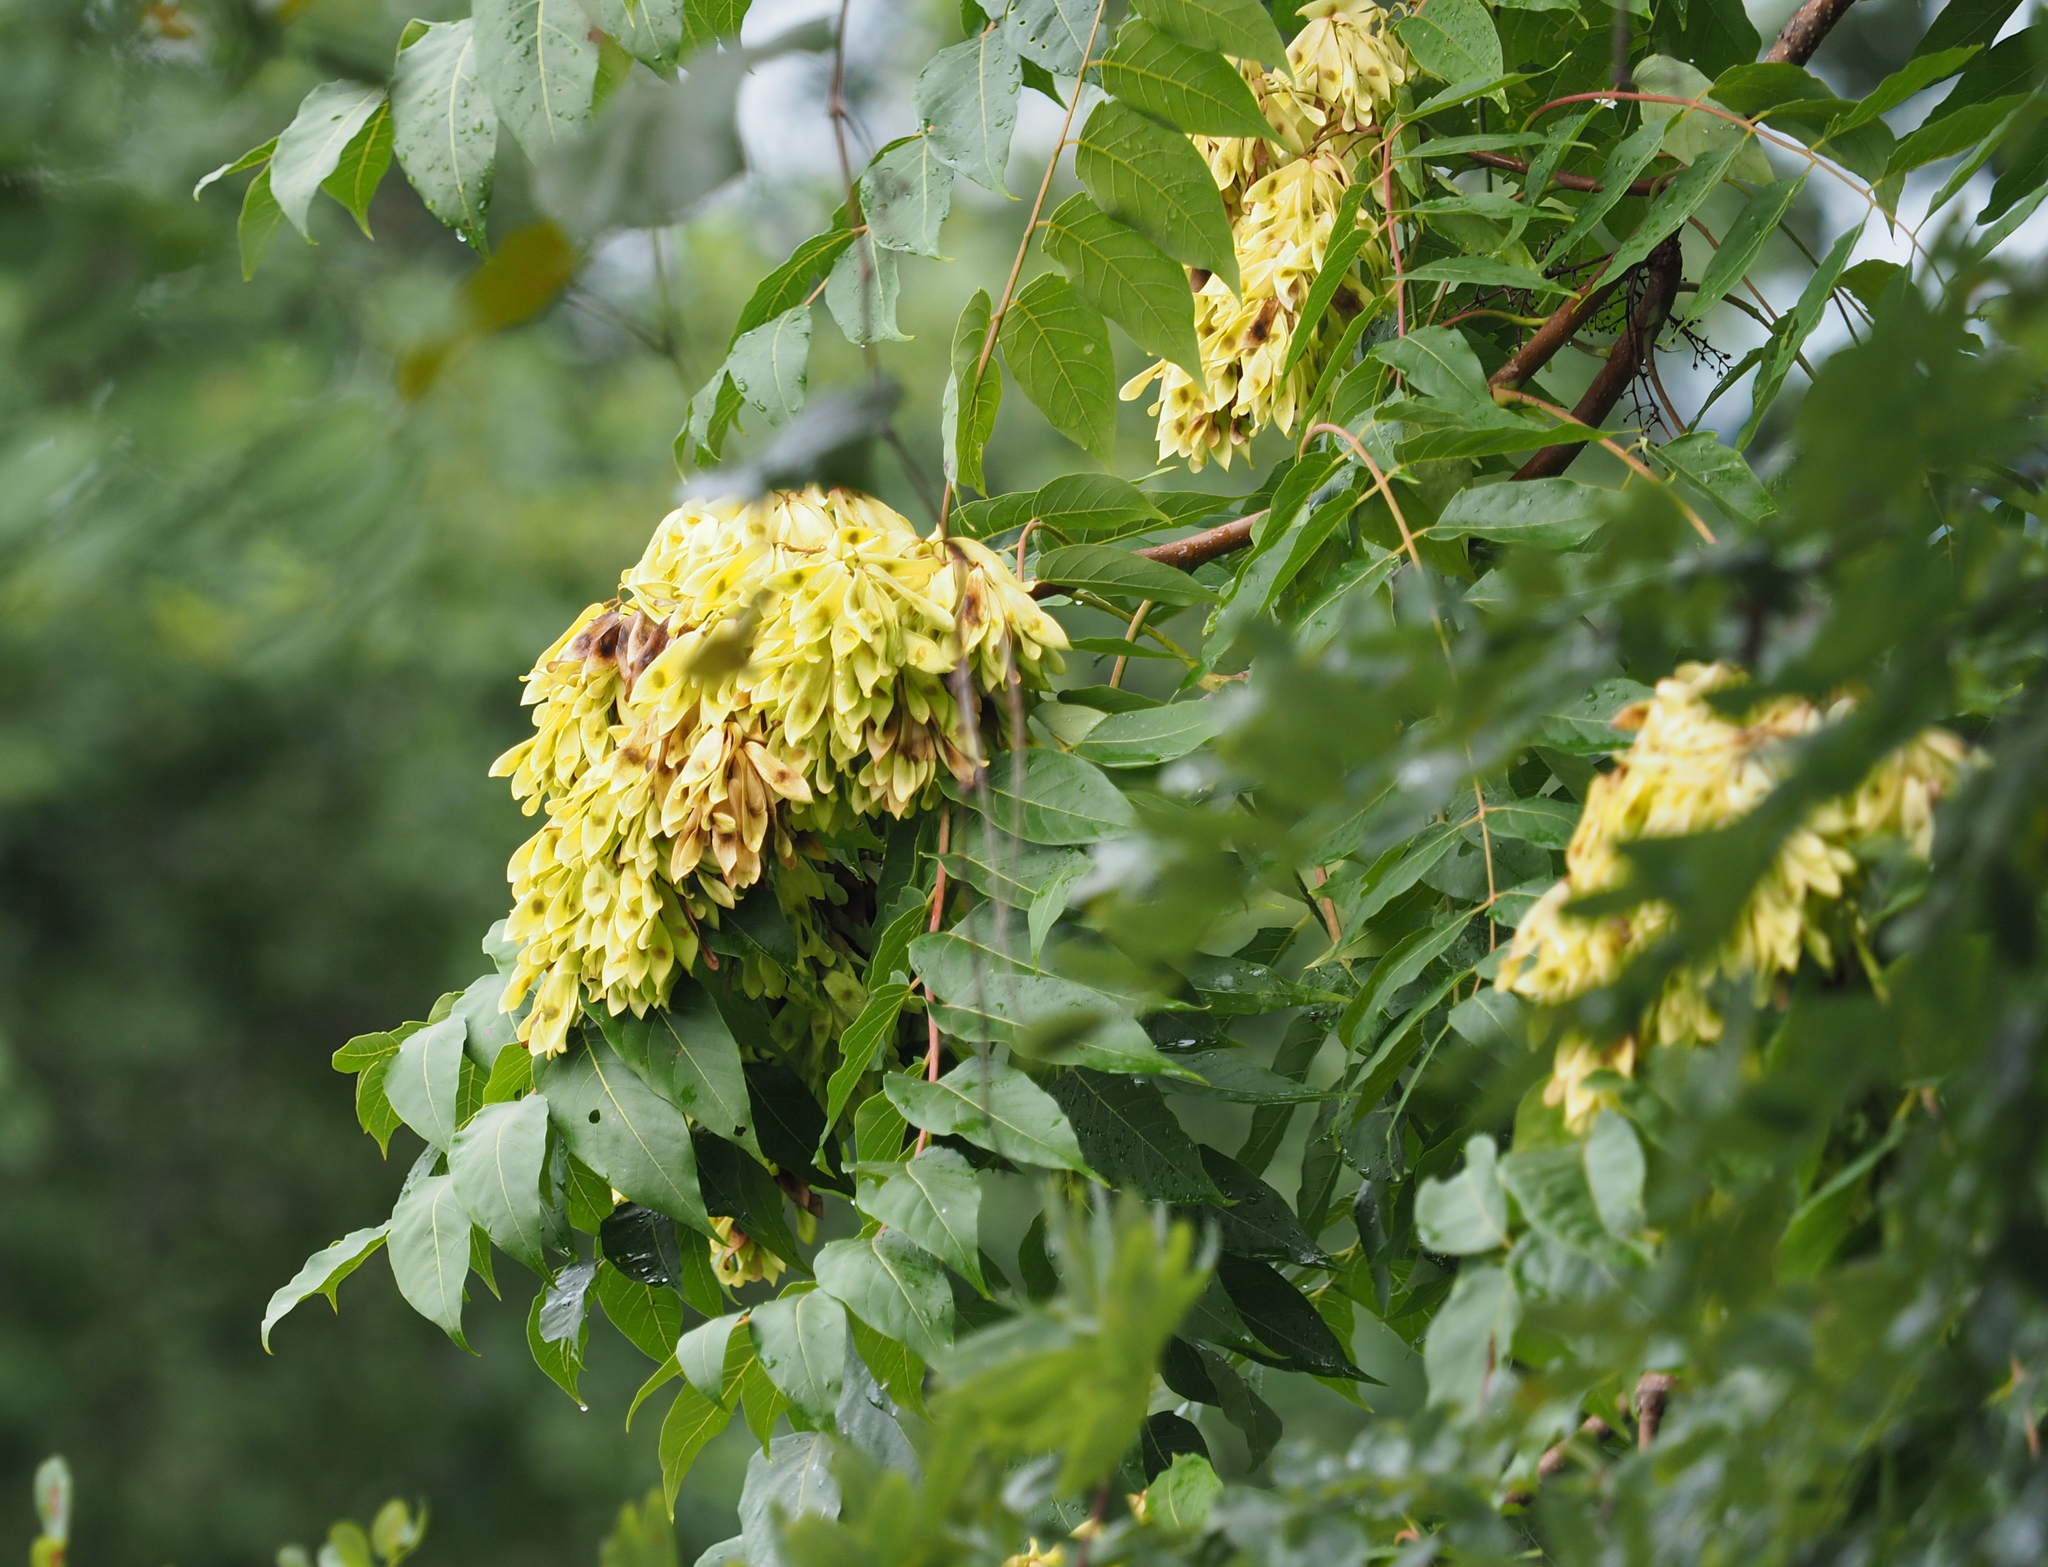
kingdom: Plantae
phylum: Tracheophyta
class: Magnoliopsida
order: Sapindales
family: Simaroubaceae
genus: Ailanthus
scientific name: Ailanthus altissima
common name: Tree-of-heaven
